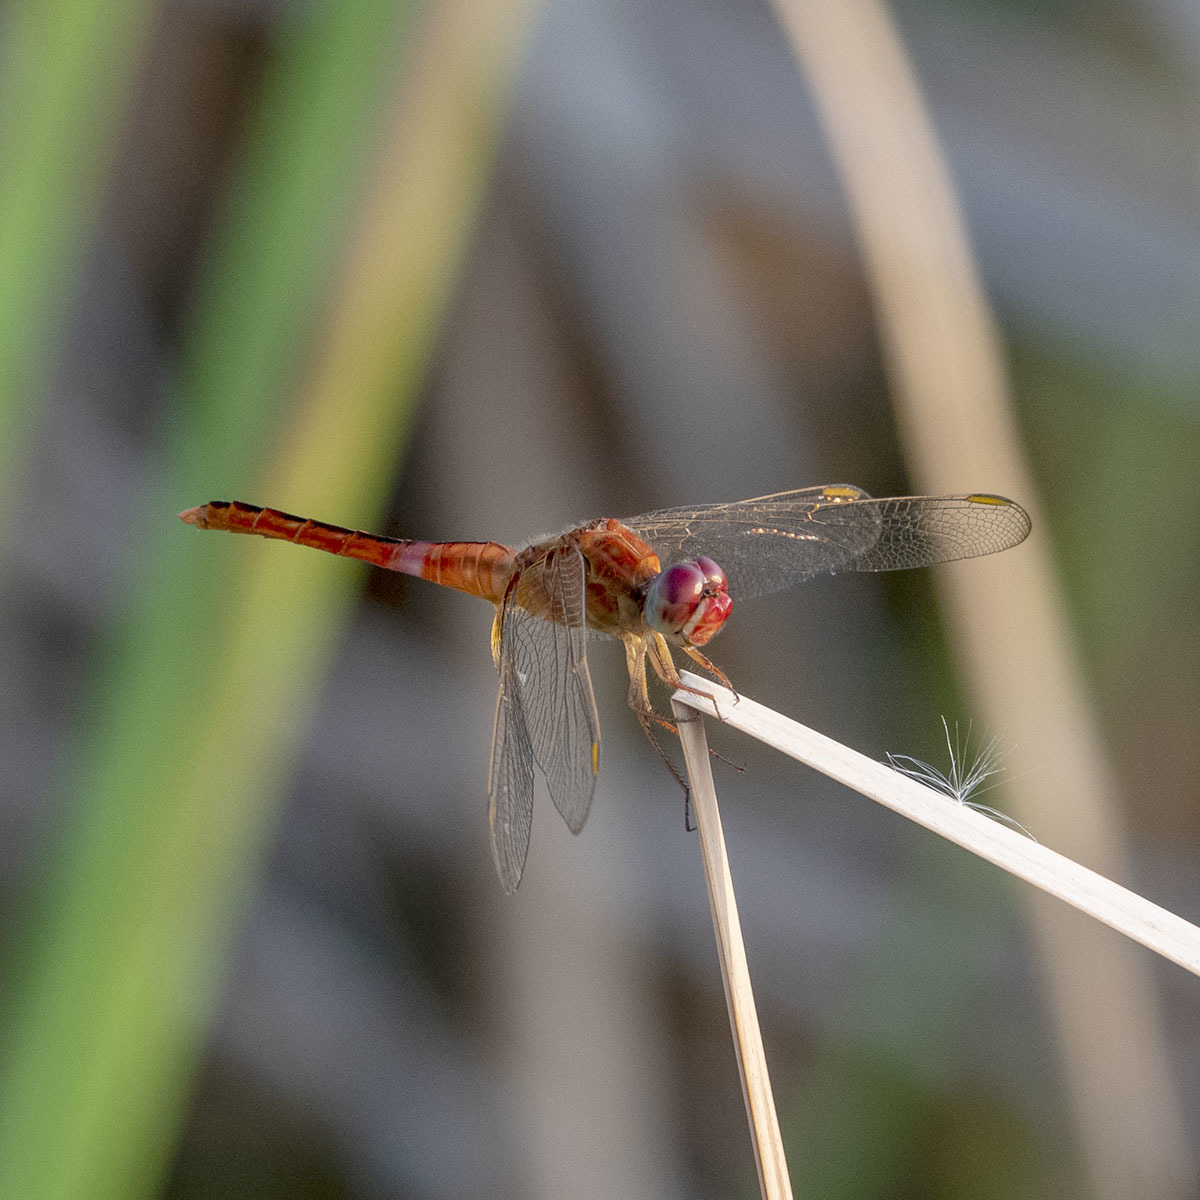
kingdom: Animalia
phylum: Arthropoda
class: Insecta
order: Odonata
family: Libellulidae
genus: Crocothemis
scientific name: Crocothemis servilia
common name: Scarlet skimmer
